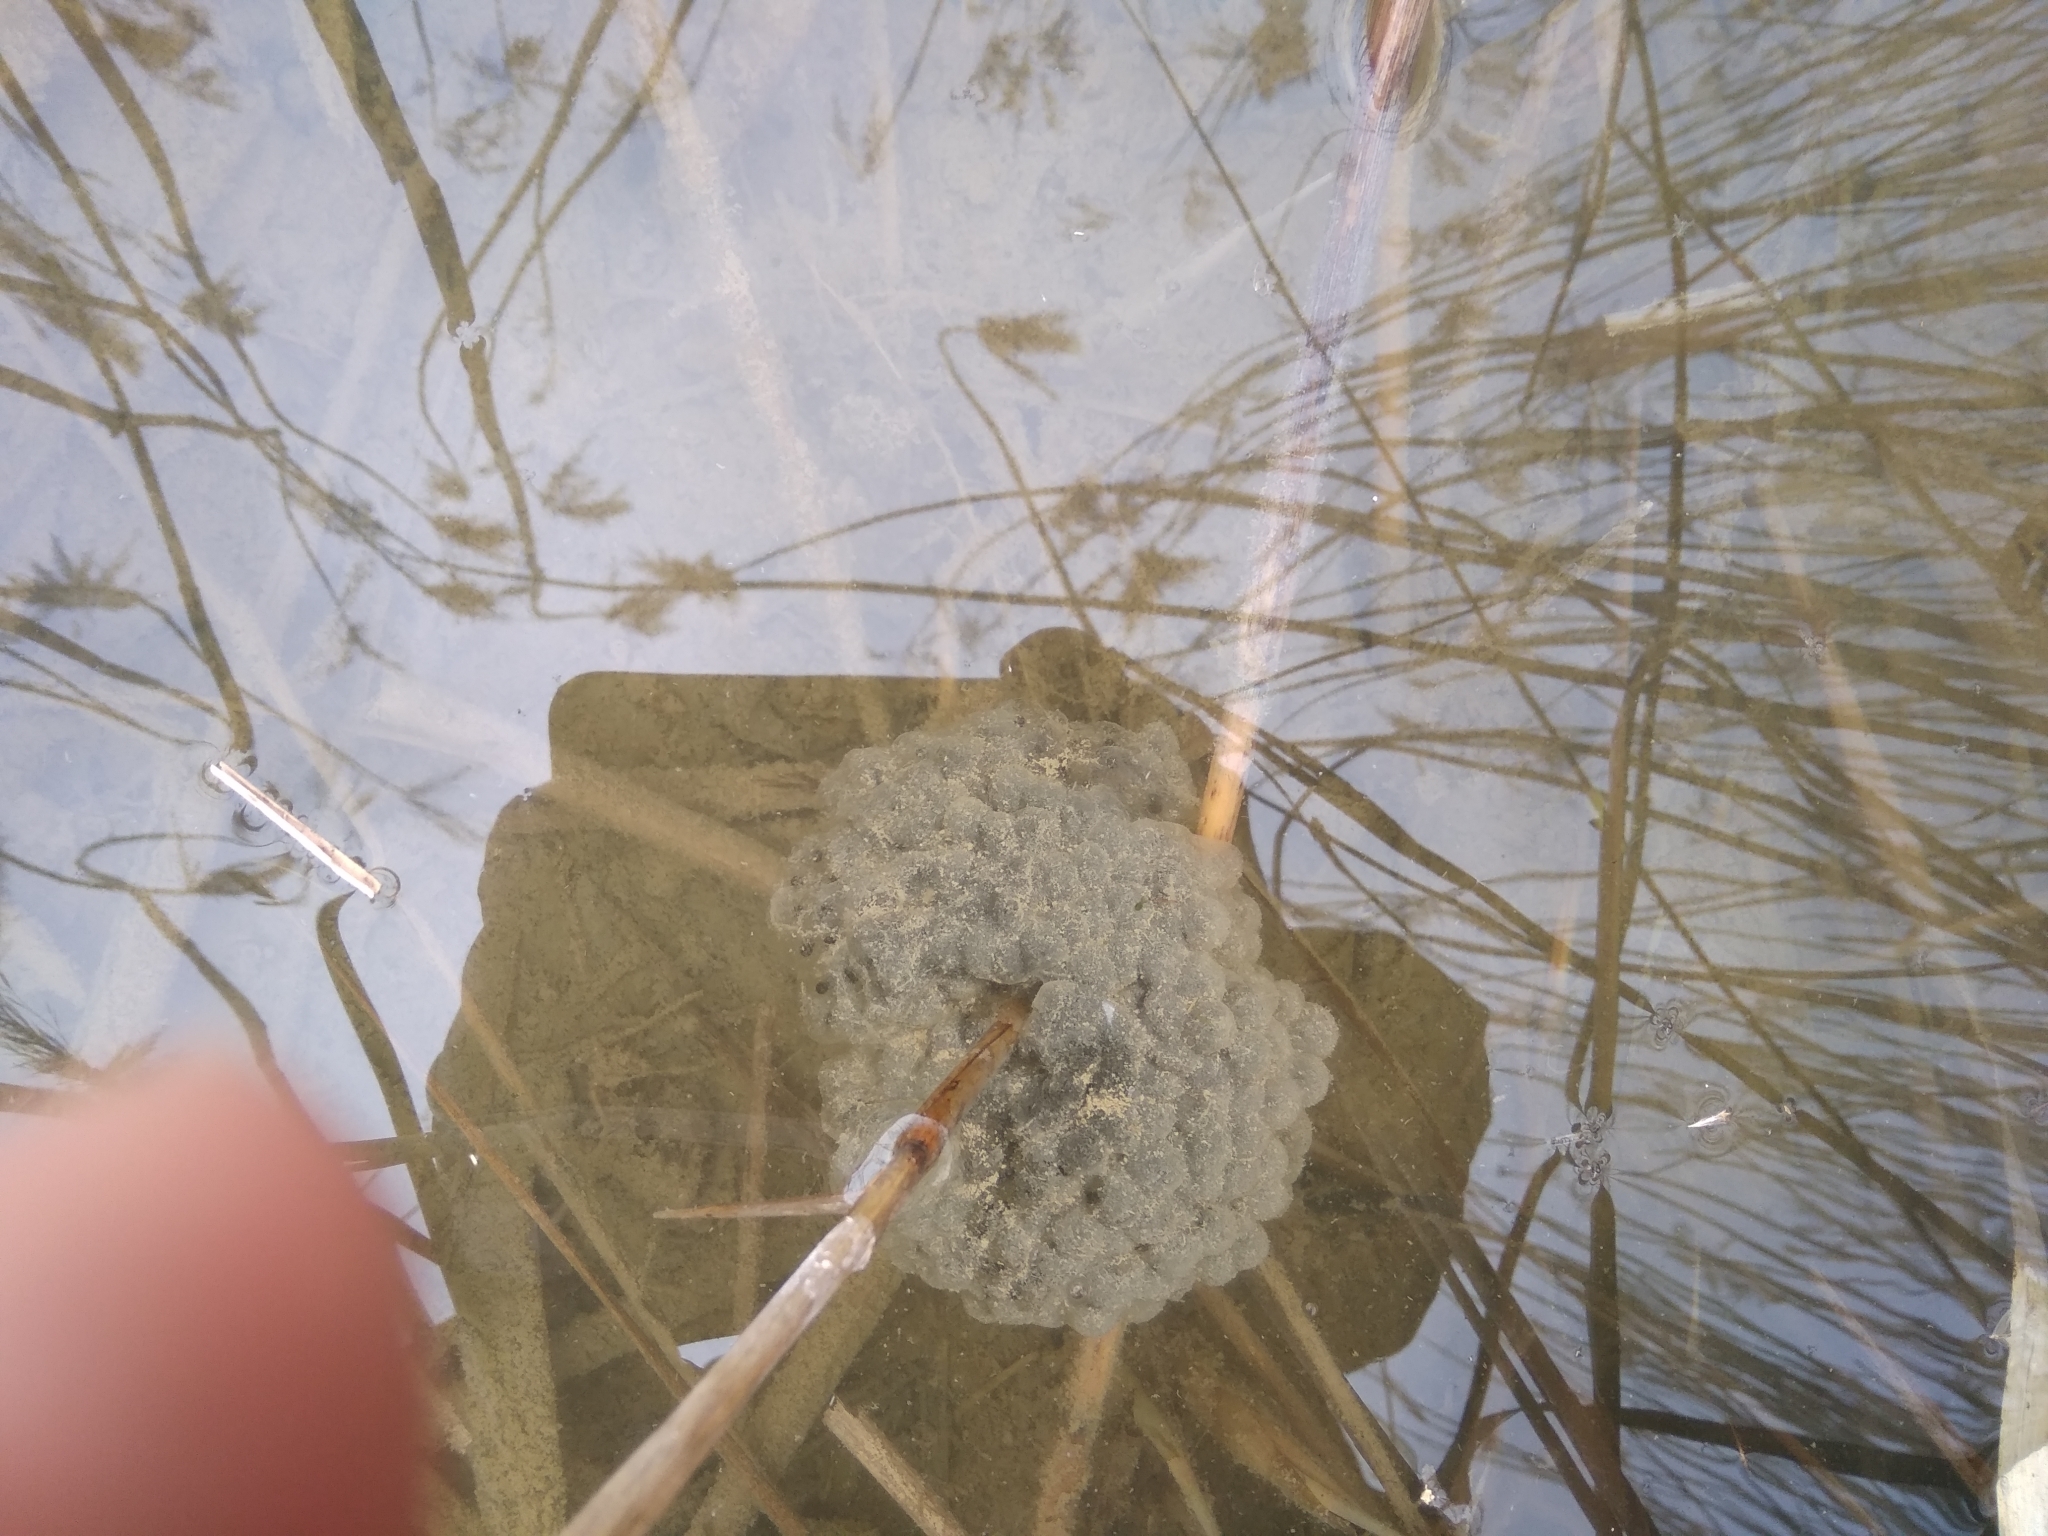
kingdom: Animalia
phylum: Chordata
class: Amphibia
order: Anura
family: Ranidae
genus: Rana
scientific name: Rana dalmatina
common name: Agile frog
